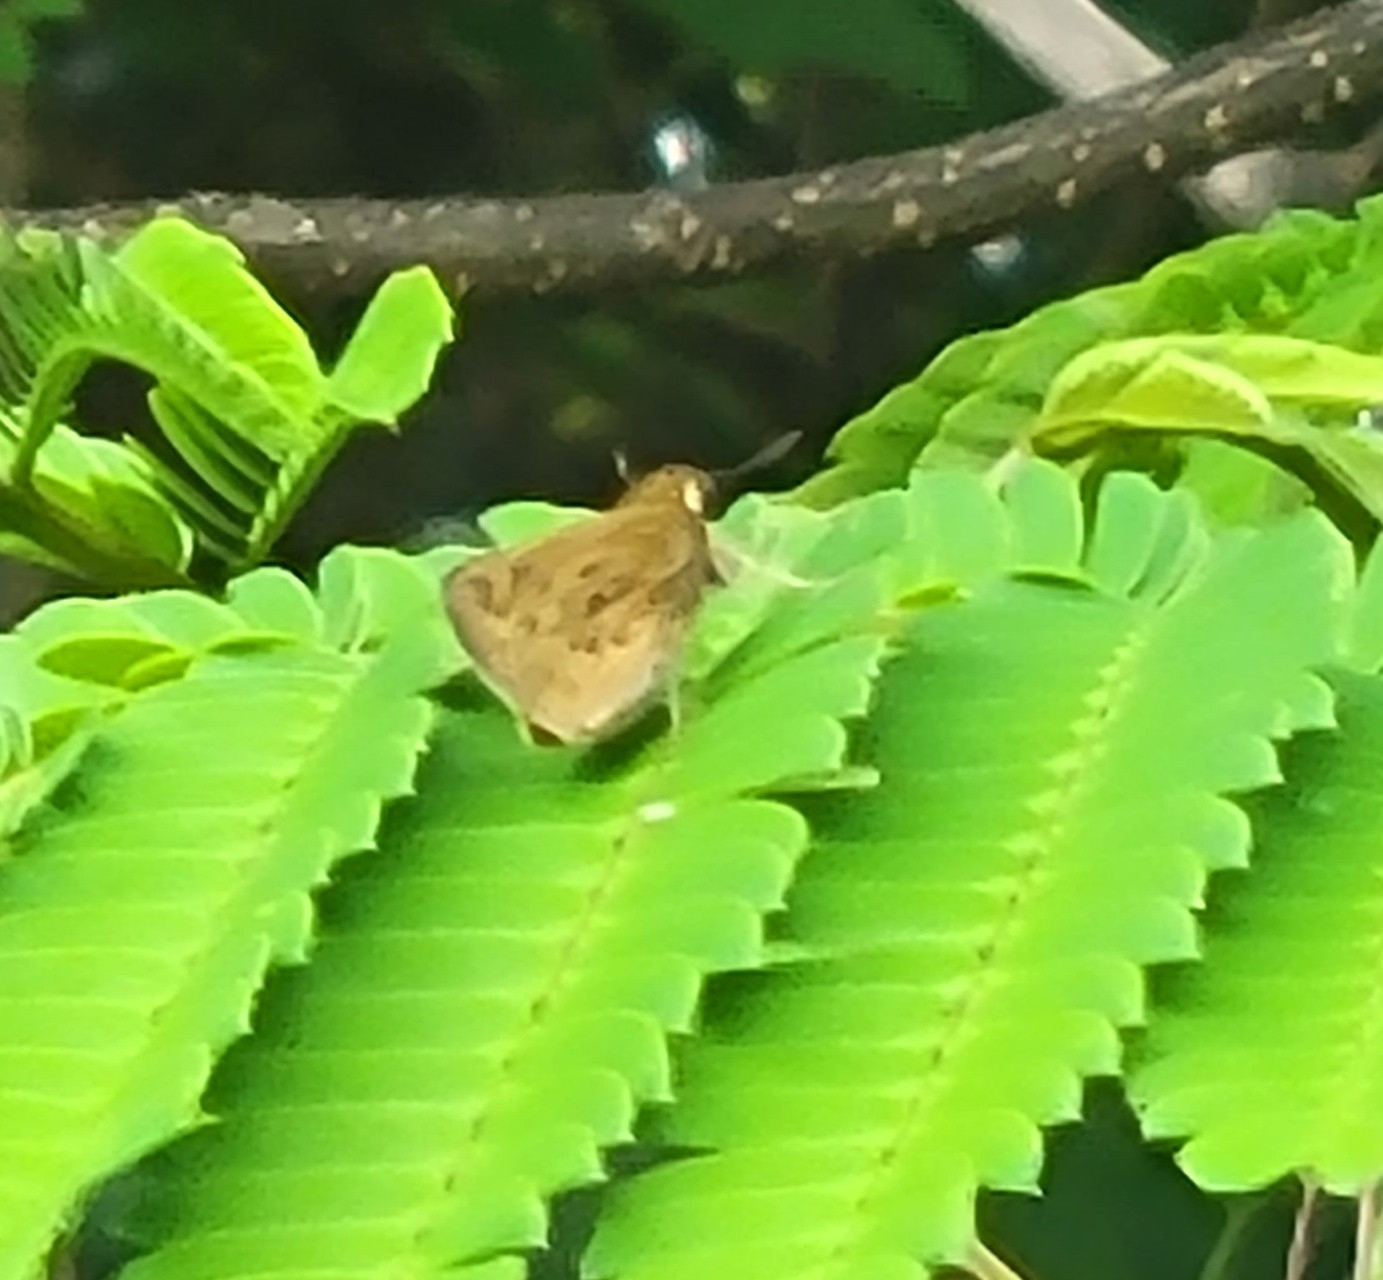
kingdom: Animalia
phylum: Arthropoda
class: Insecta
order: Lepidoptera
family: Hesperiidae
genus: Hylephila
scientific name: Hylephila phyleus
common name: Fiery skipper
